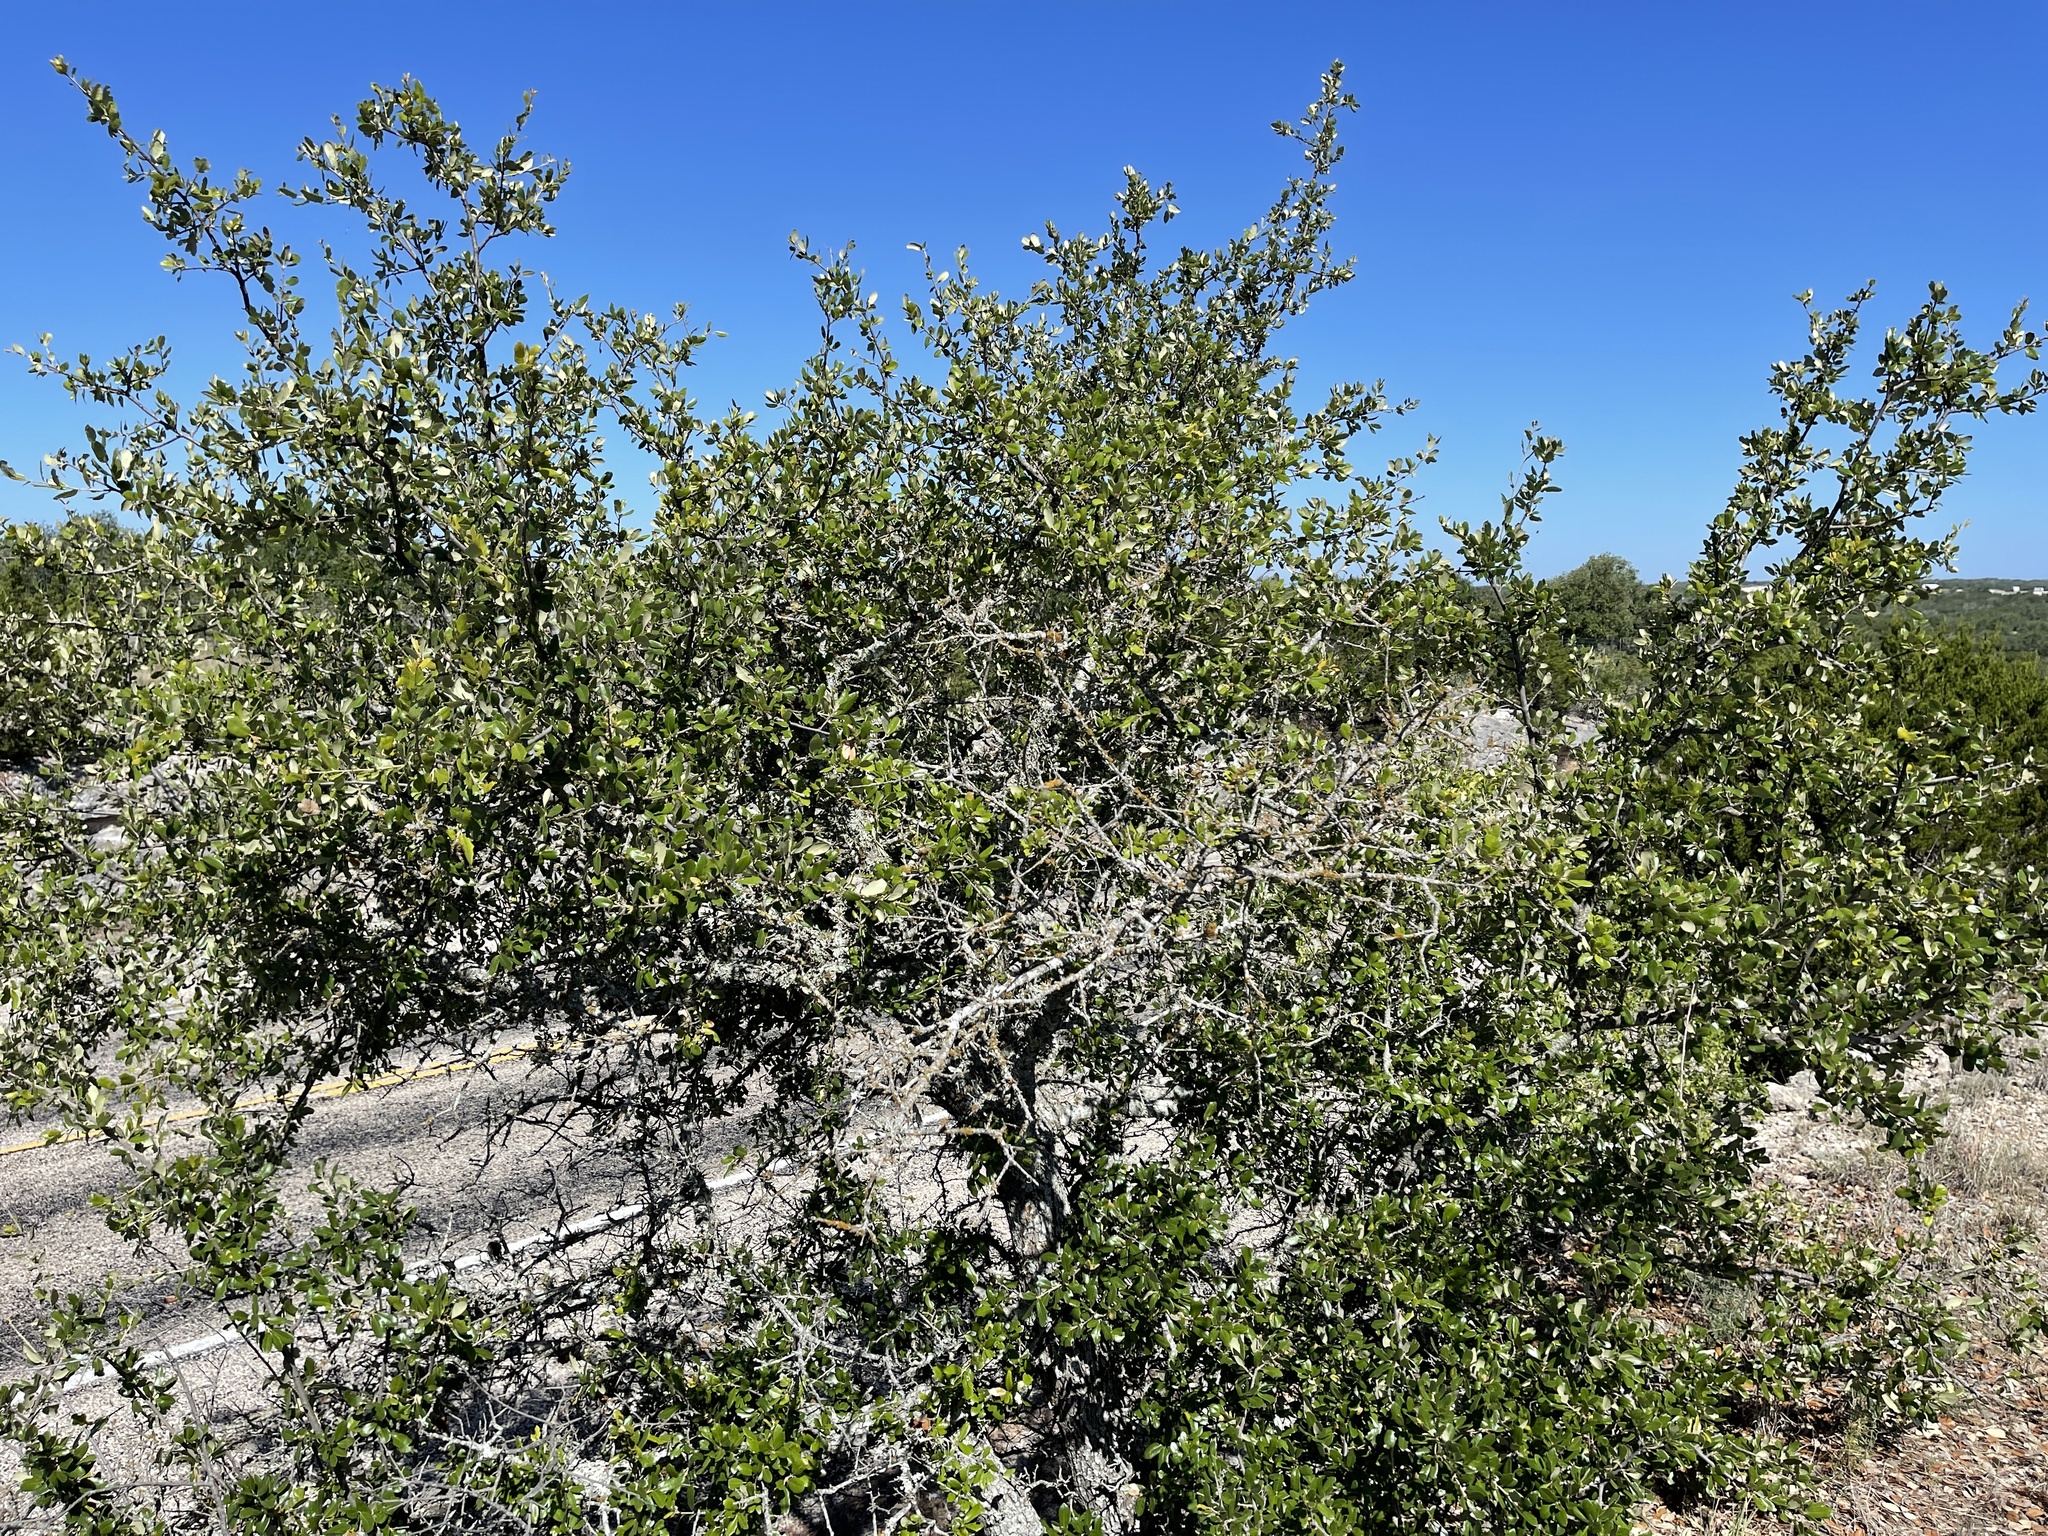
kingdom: Plantae
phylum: Tracheophyta
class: Magnoliopsida
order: Fagales
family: Fagaceae
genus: Quercus
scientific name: Quercus fusiformis
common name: Texas live oak
